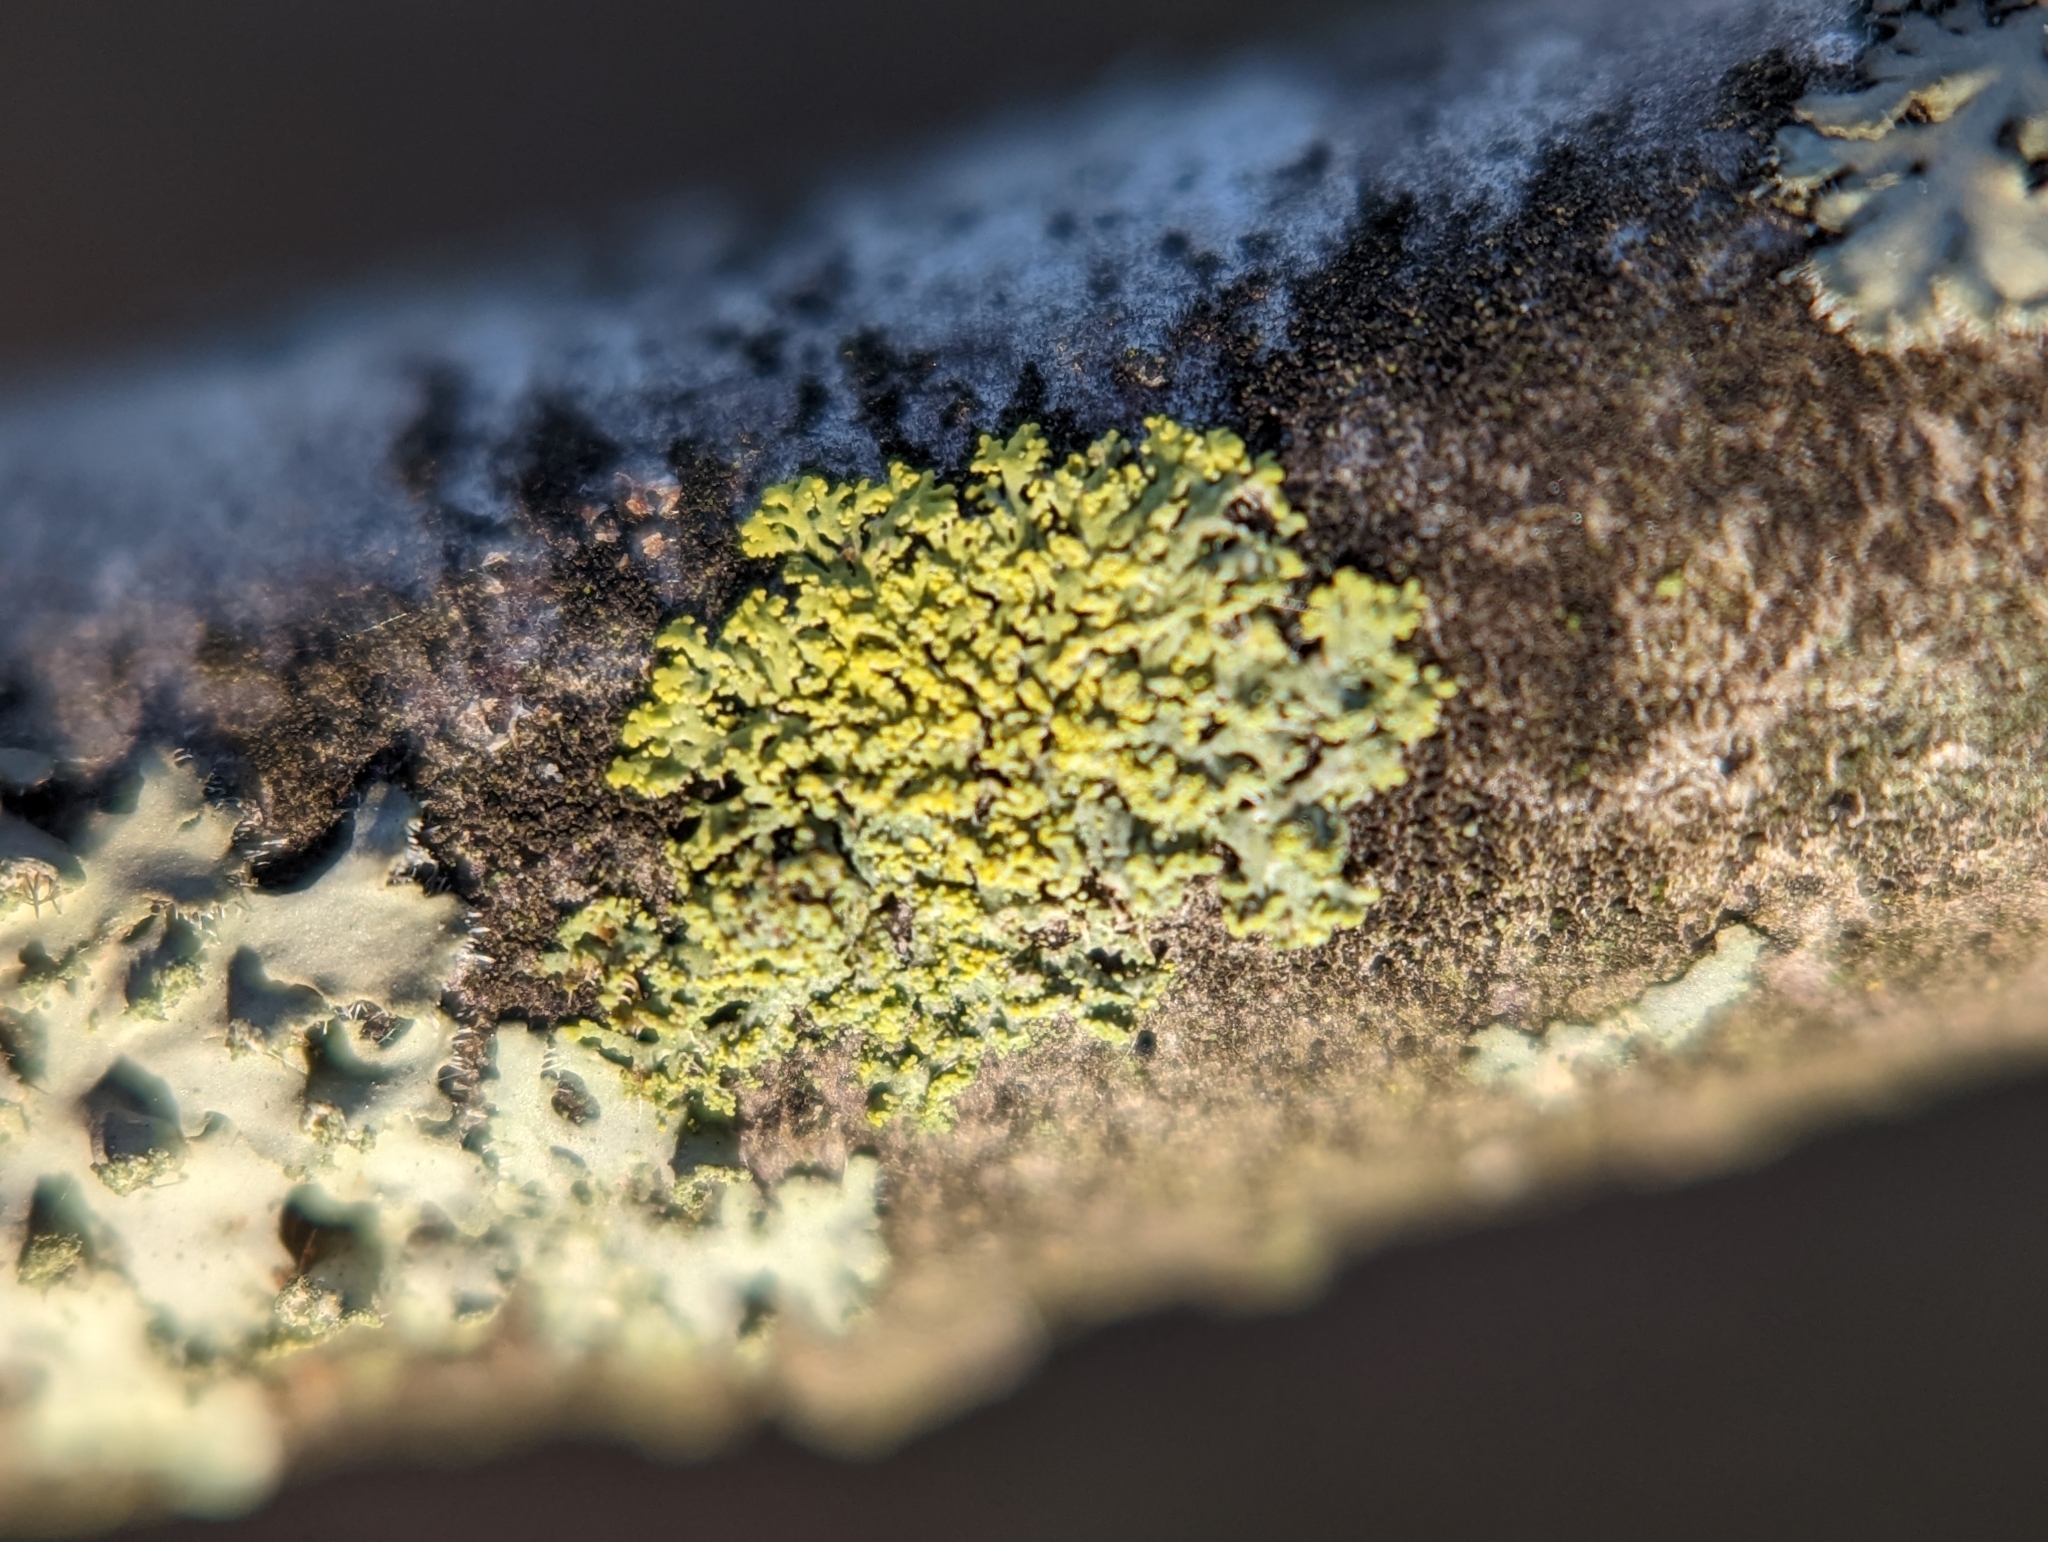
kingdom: Fungi
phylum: Ascomycota
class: Candelariomycetes
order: Candelariales
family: Candelariaceae
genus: Candelaria
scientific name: Candelaria concolor
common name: Candleflame lichen
